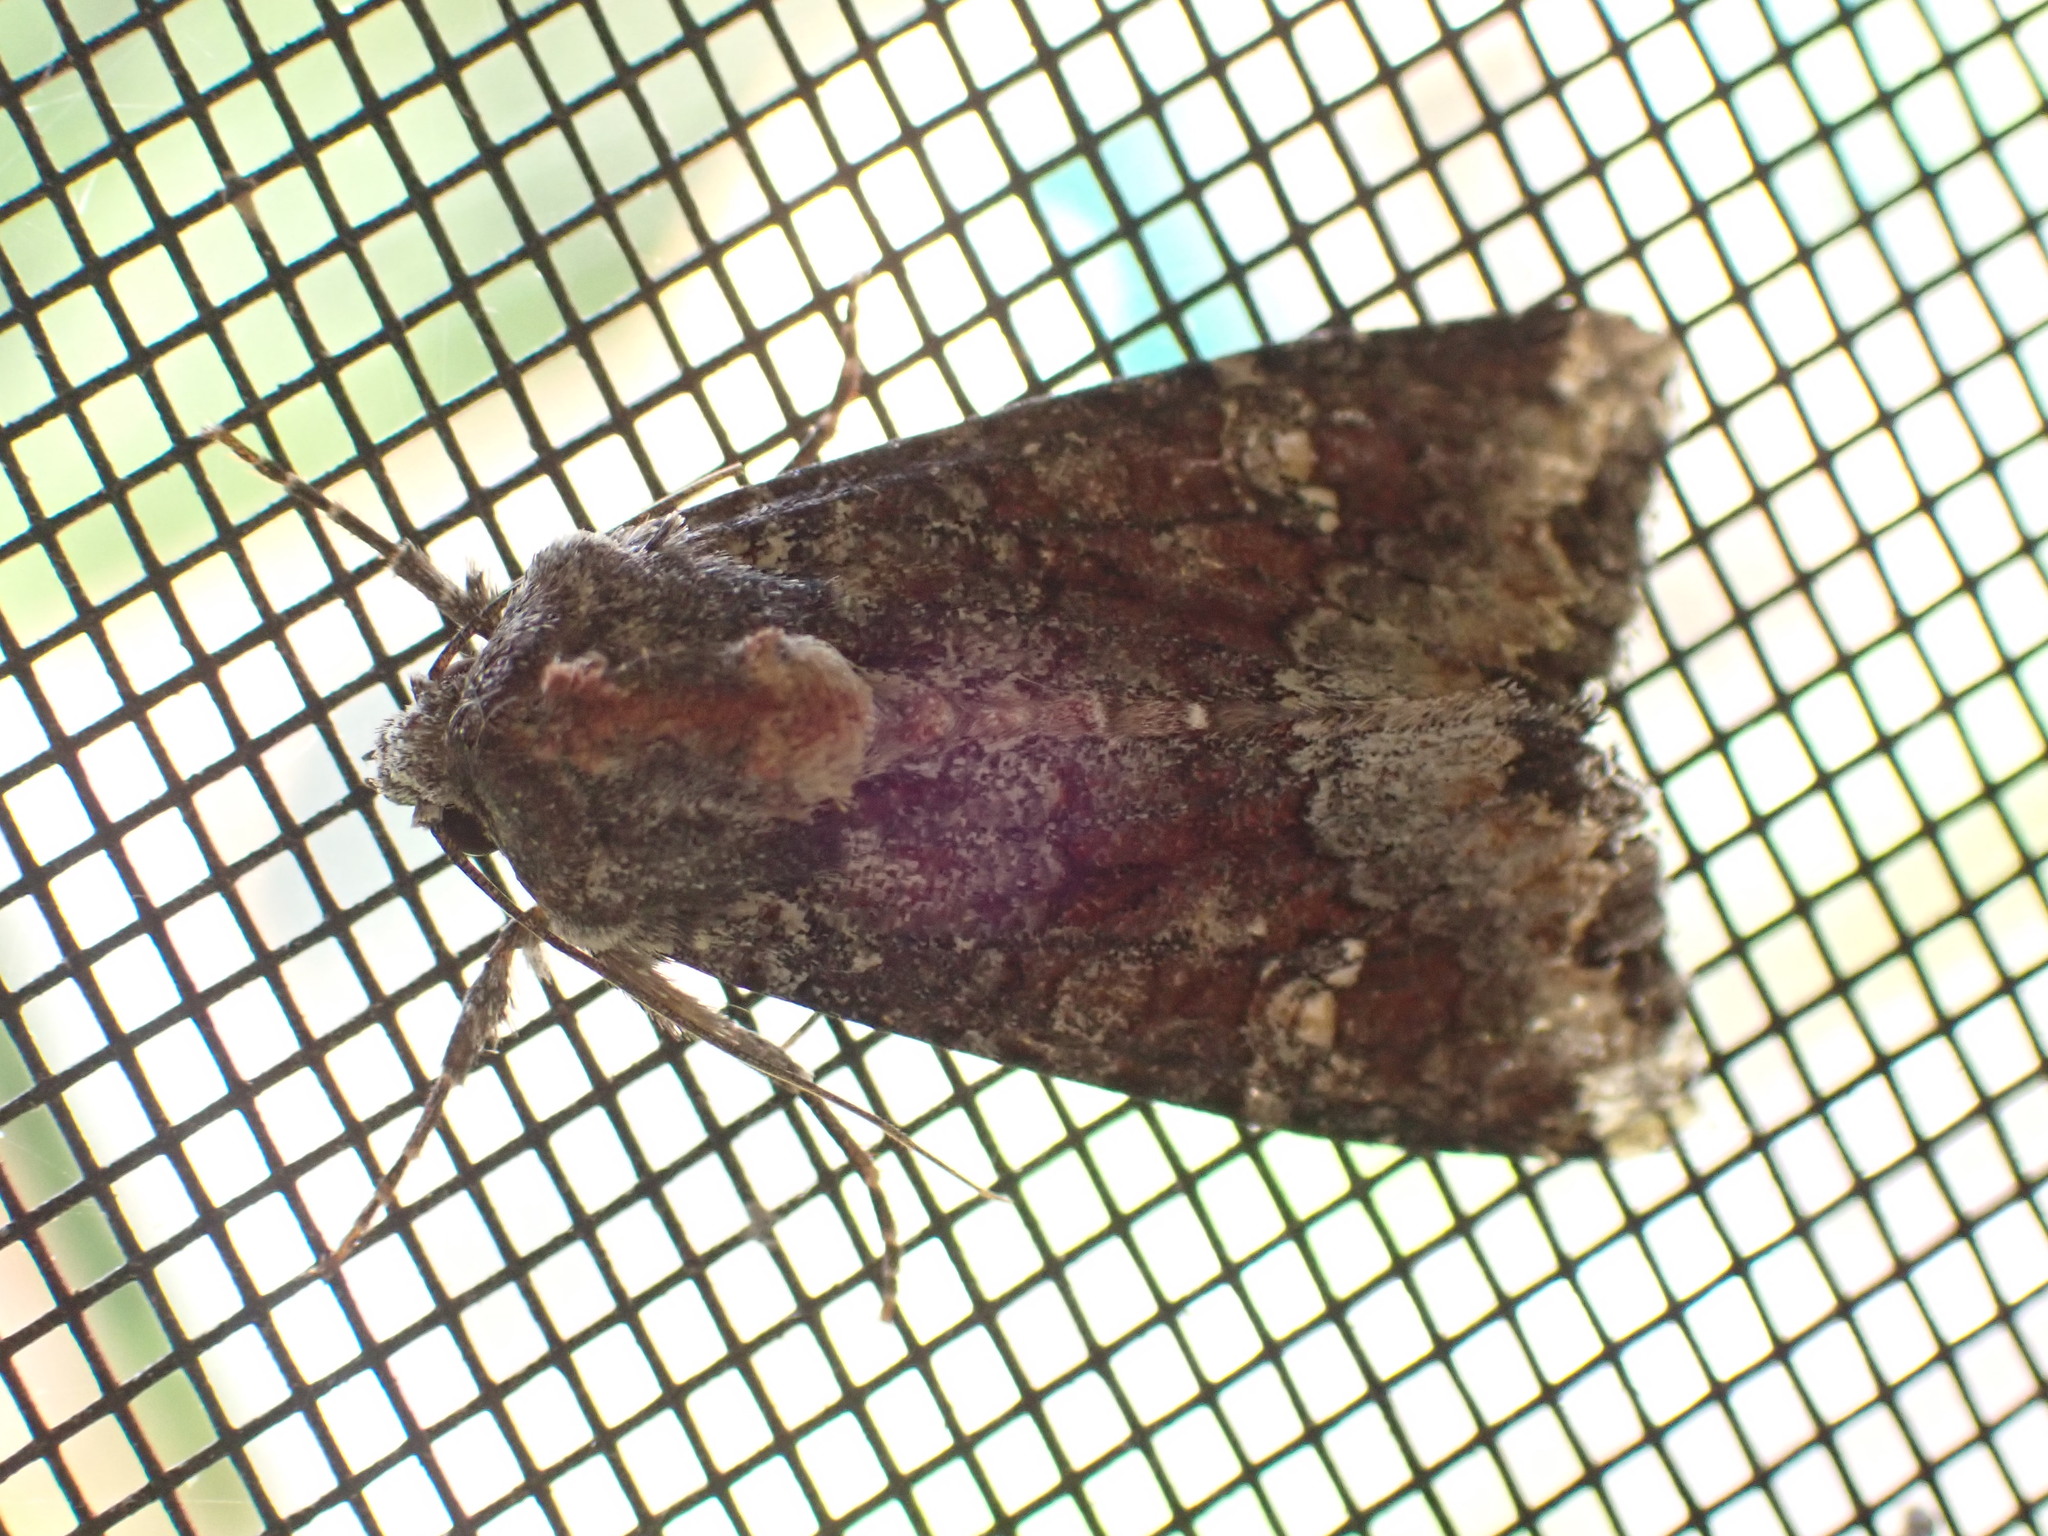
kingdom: Animalia
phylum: Arthropoda
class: Insecta
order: Lepidoptera
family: Noctuidae
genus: Apamea
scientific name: Apamea amputatrix
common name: Yellow-headed cutworm moth
